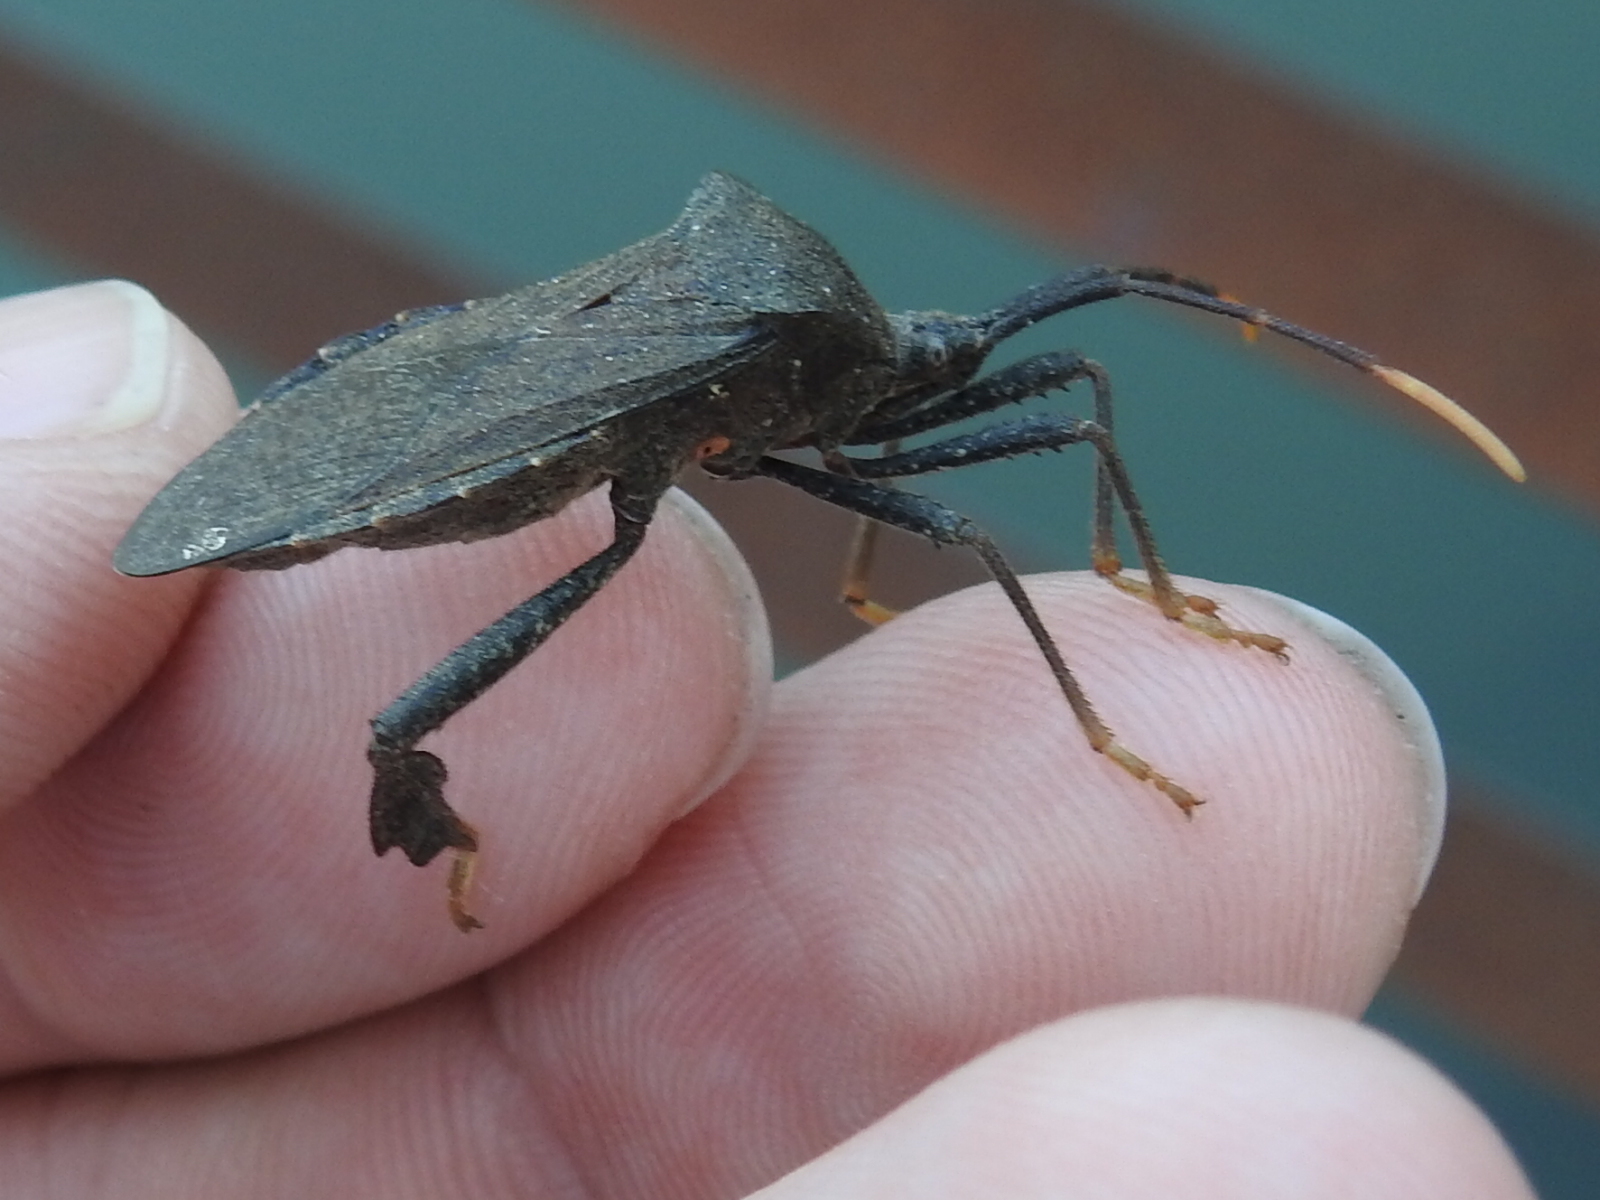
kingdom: Animalia
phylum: Arthropoda
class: Insecta
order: Hemiptera
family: Coreidae
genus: Acanthocephala
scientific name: Acanthocephala terminalis
